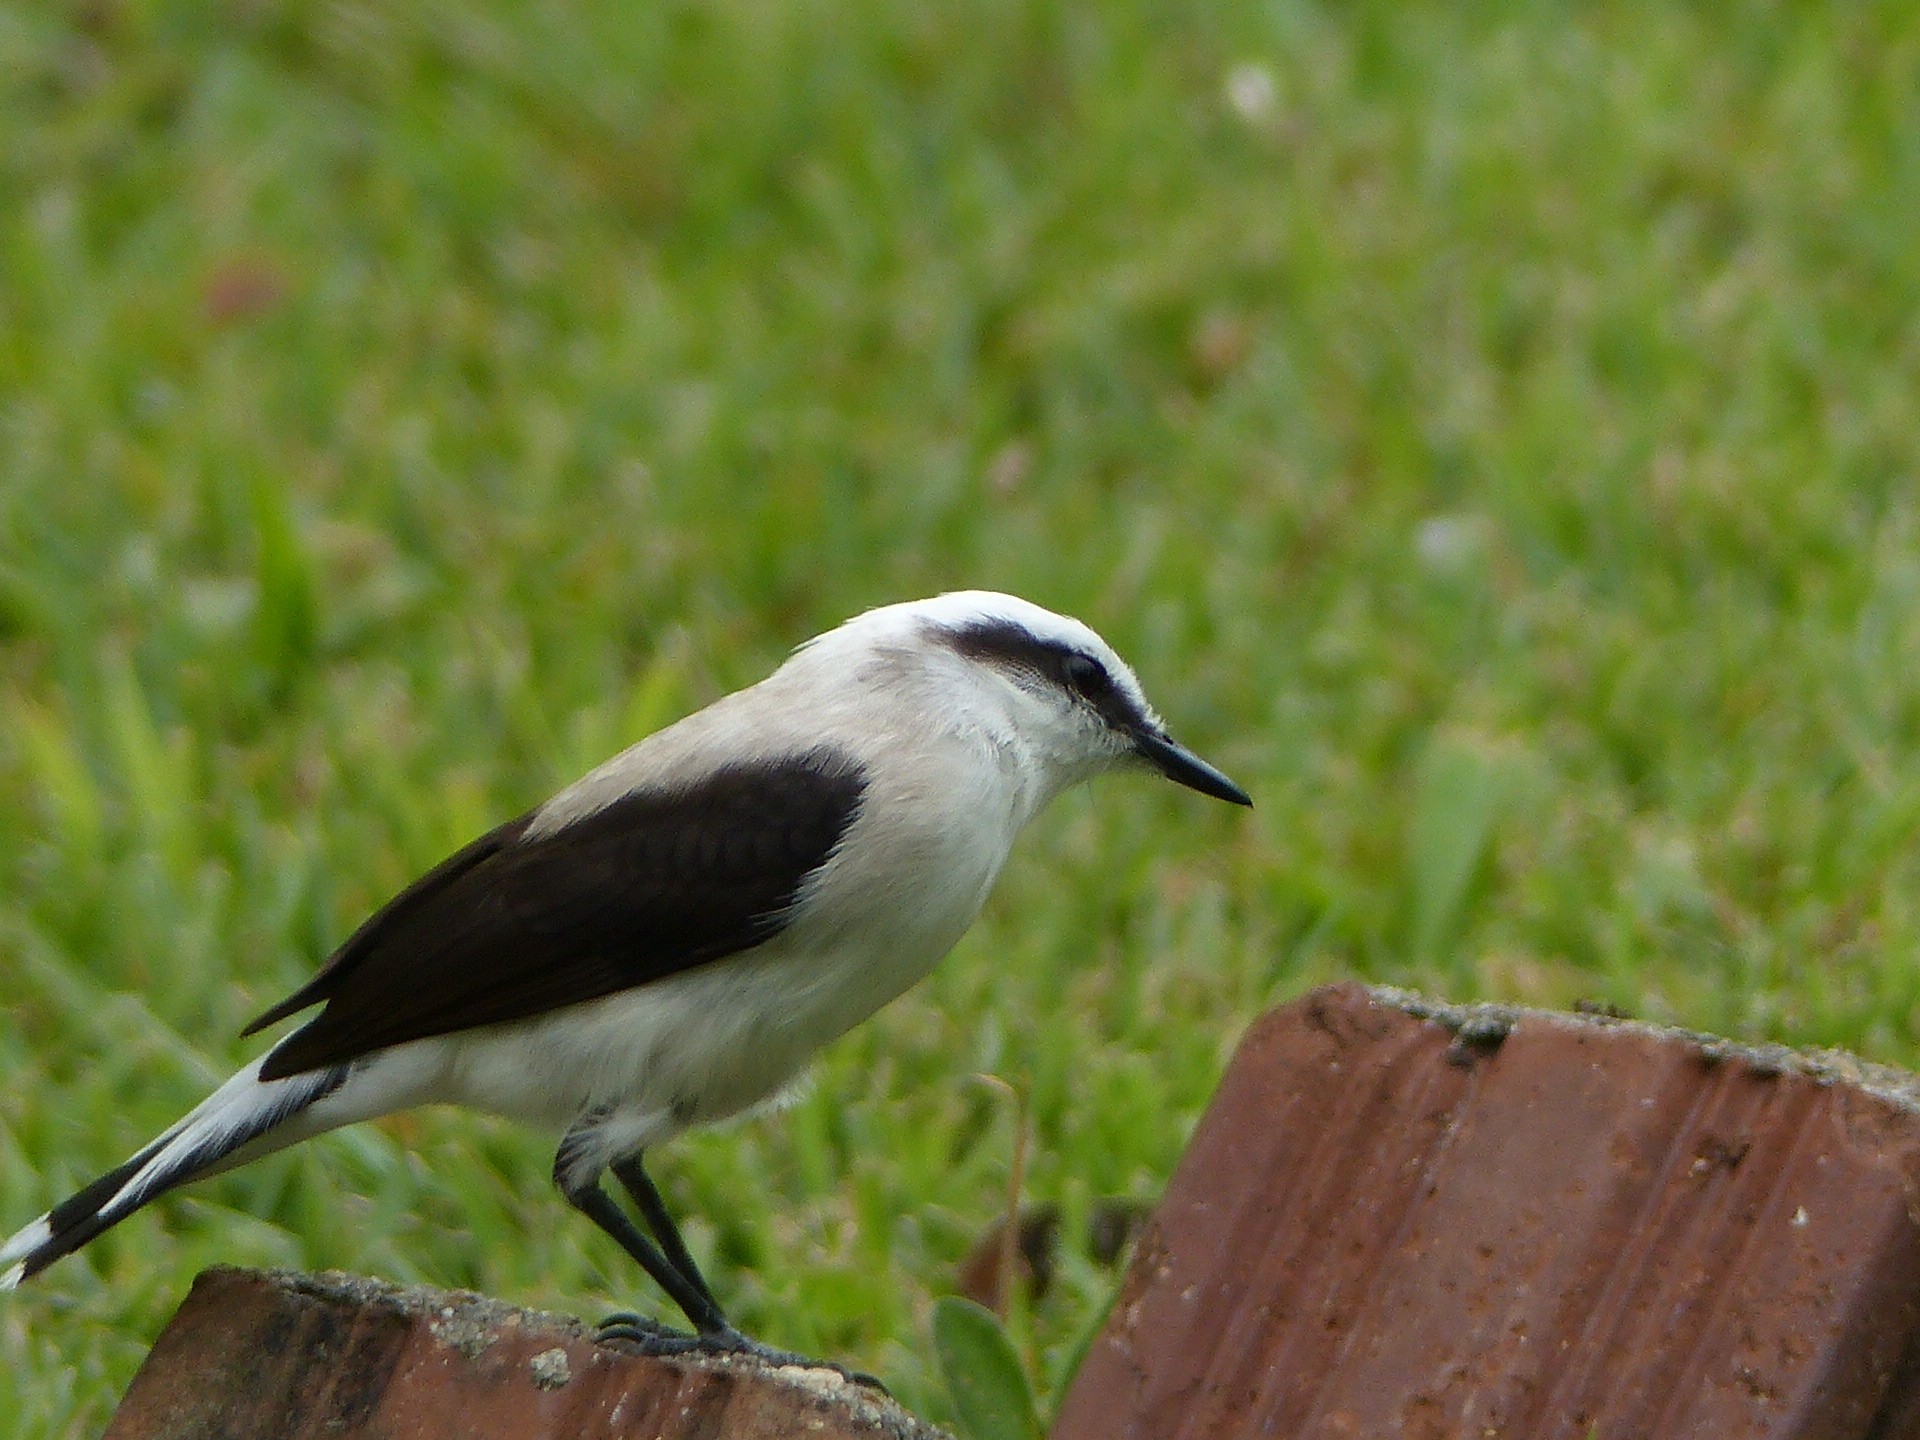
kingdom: Animalia
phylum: Chordata
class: Aves
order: Passeriformes
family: Tyrannidae
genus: Fluvicola
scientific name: Fluvicola nengeta
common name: Masked water tyrant
